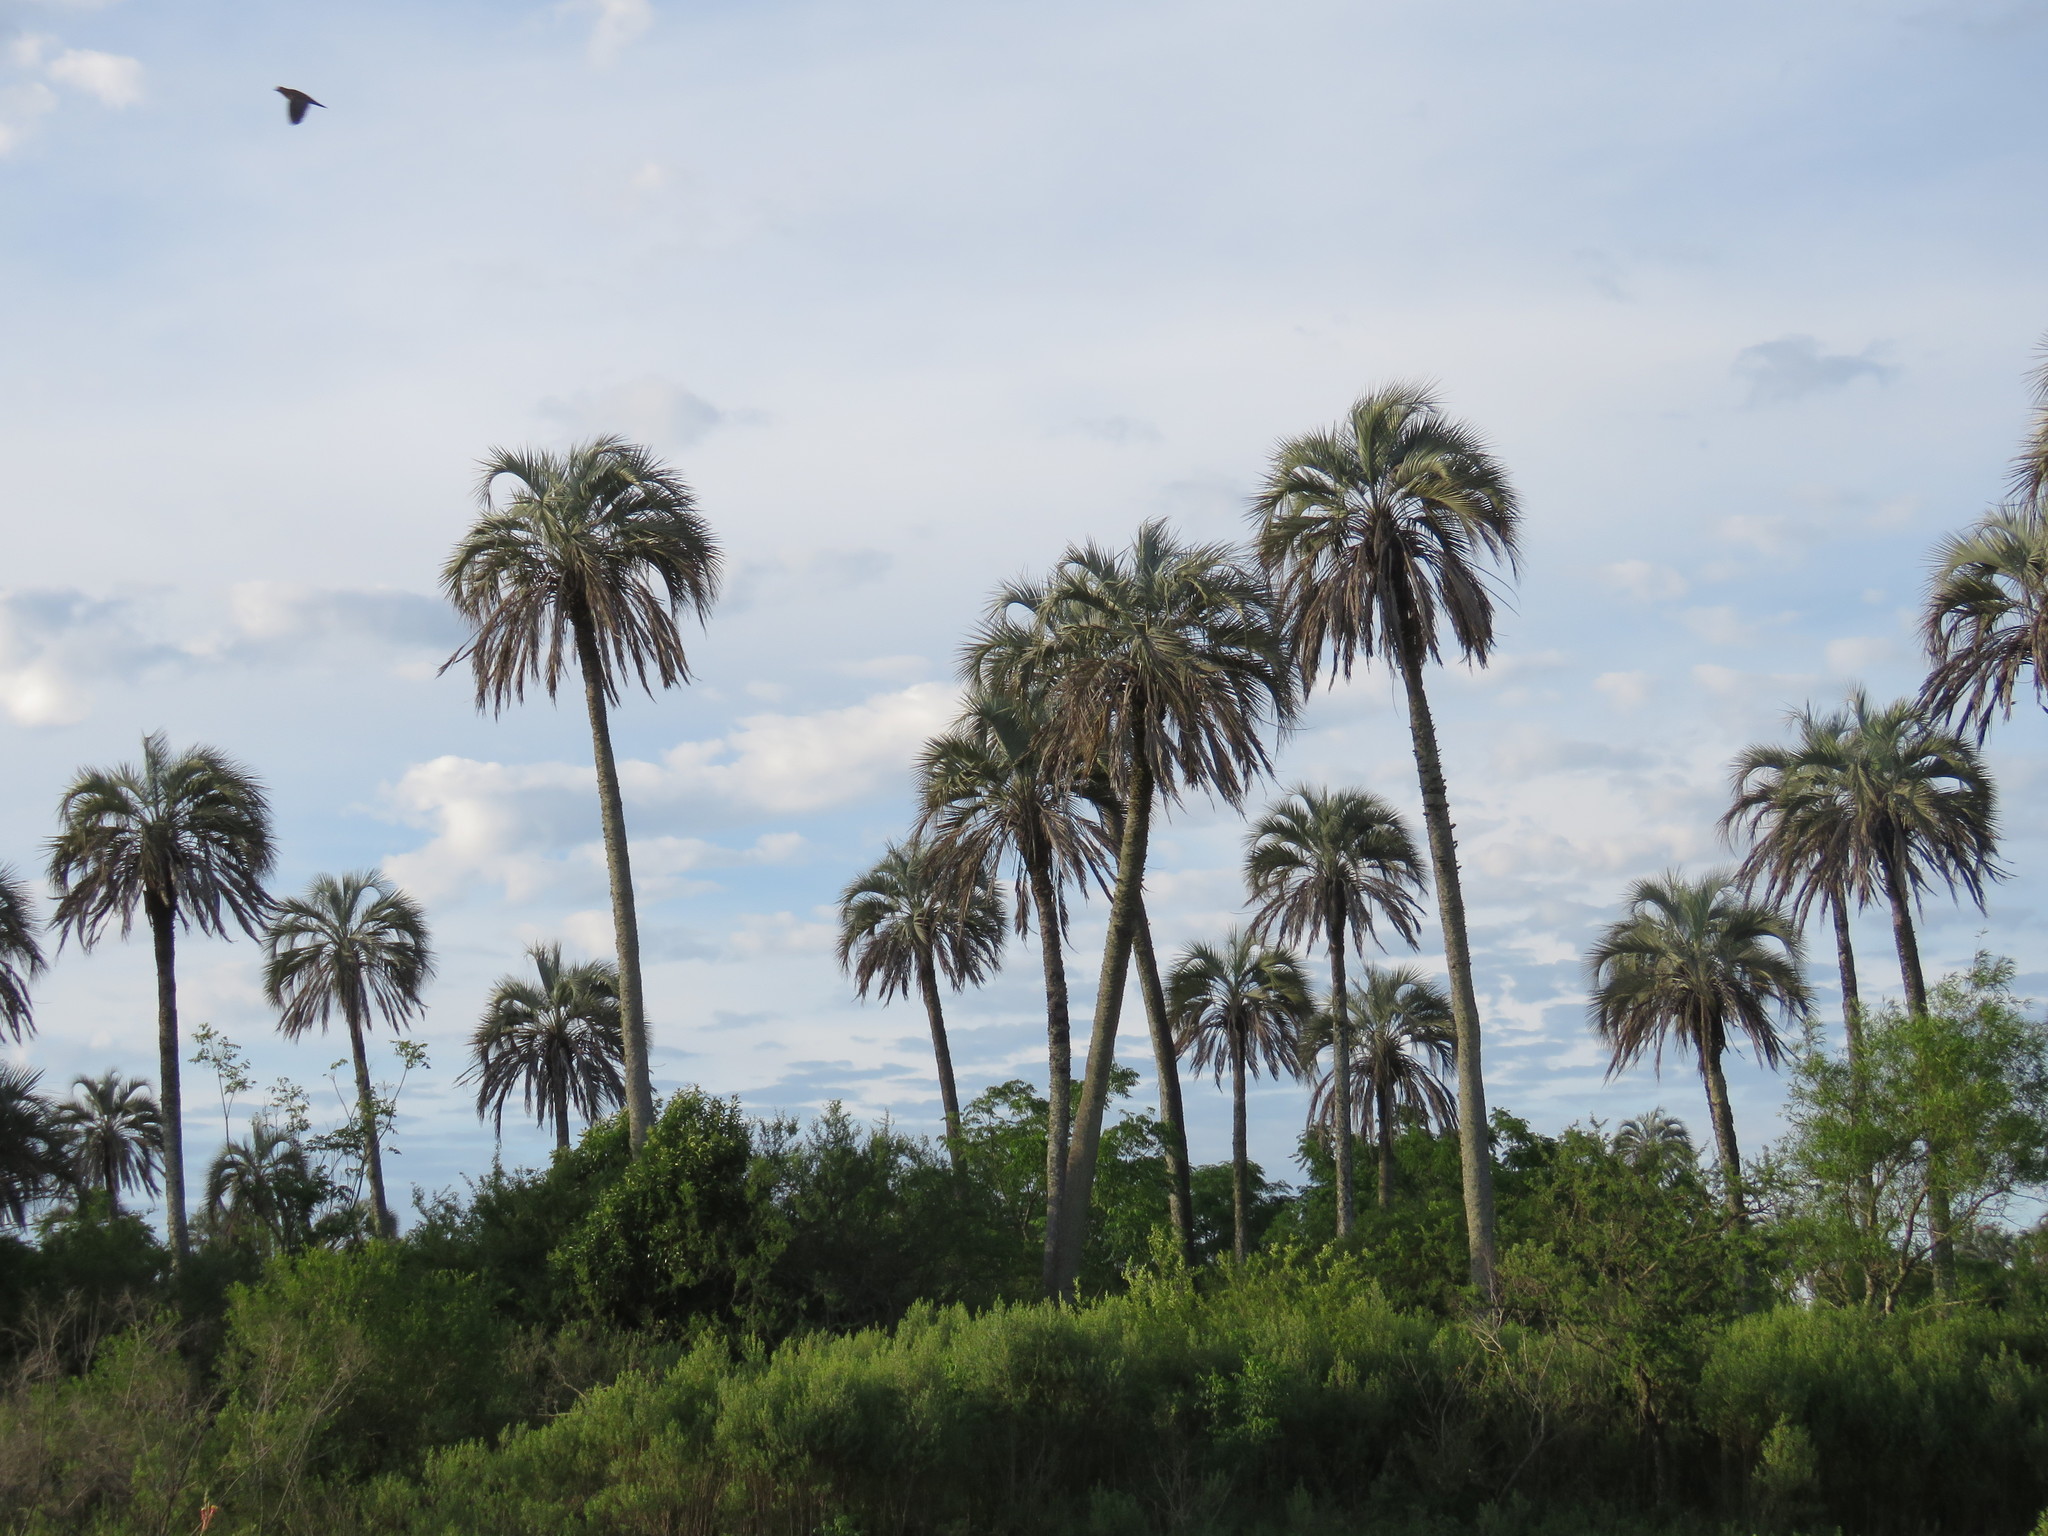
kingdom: Plantae
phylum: Tracheophyta
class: Liliopsida
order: Arecales
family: Arecaceae
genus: Butia
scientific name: Butia yatay
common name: Yatay palm
